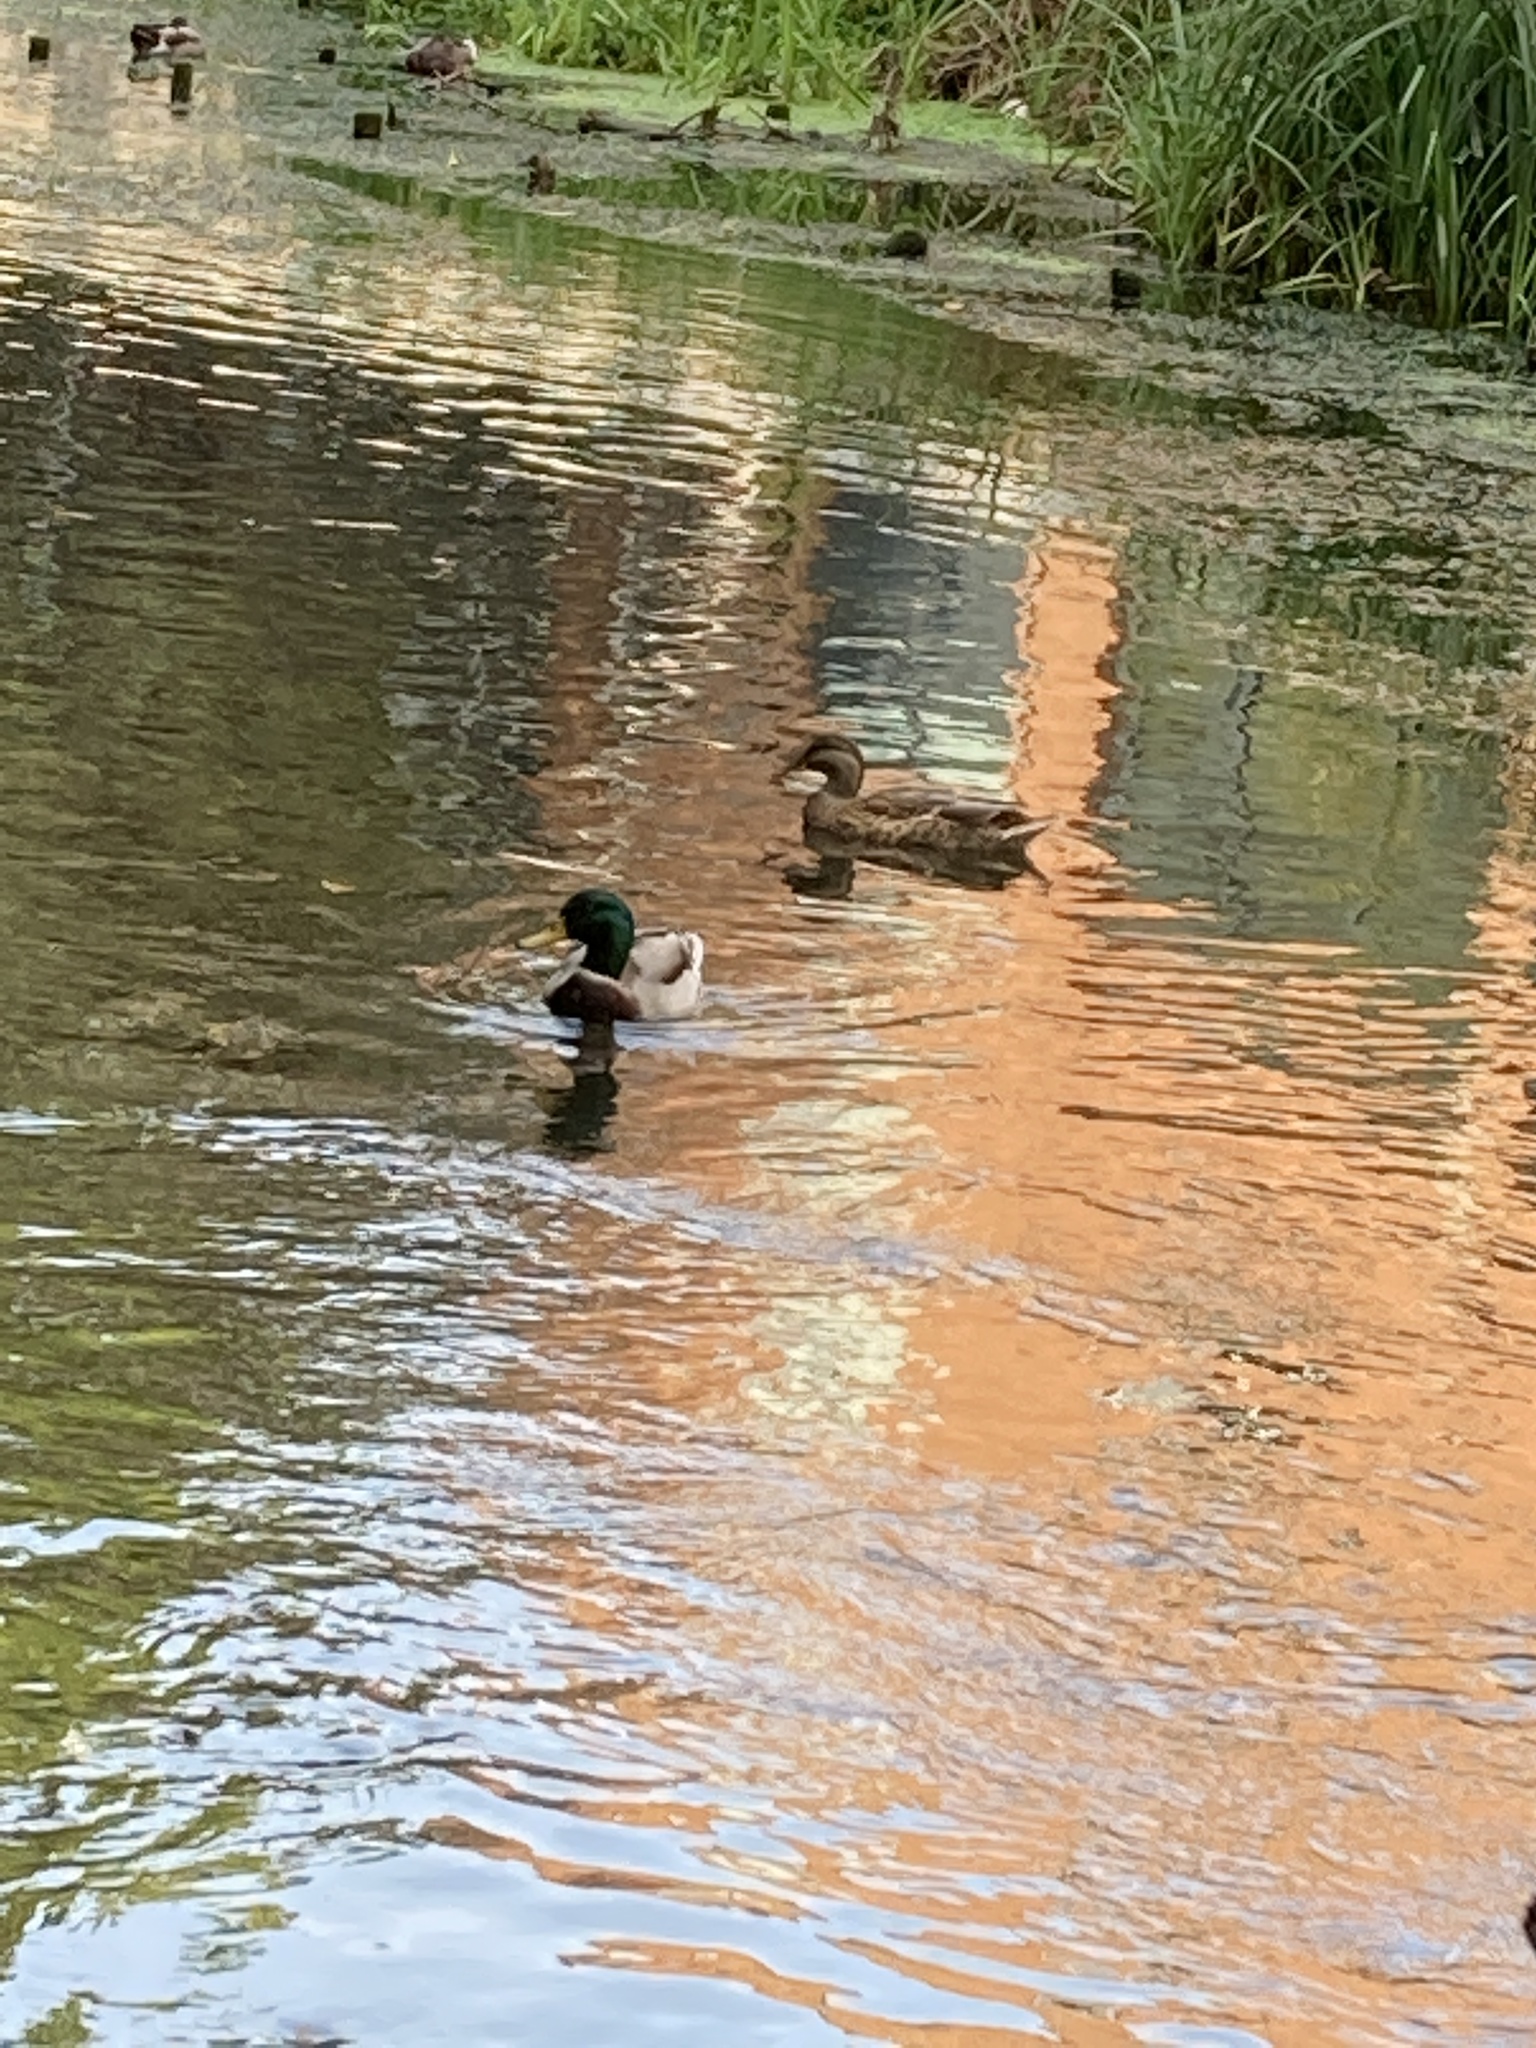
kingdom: Animalia
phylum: Chordata
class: Aves
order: Anseriformes
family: Anatidae
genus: Anas
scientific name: Anas platyrhynchos
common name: Mallard
